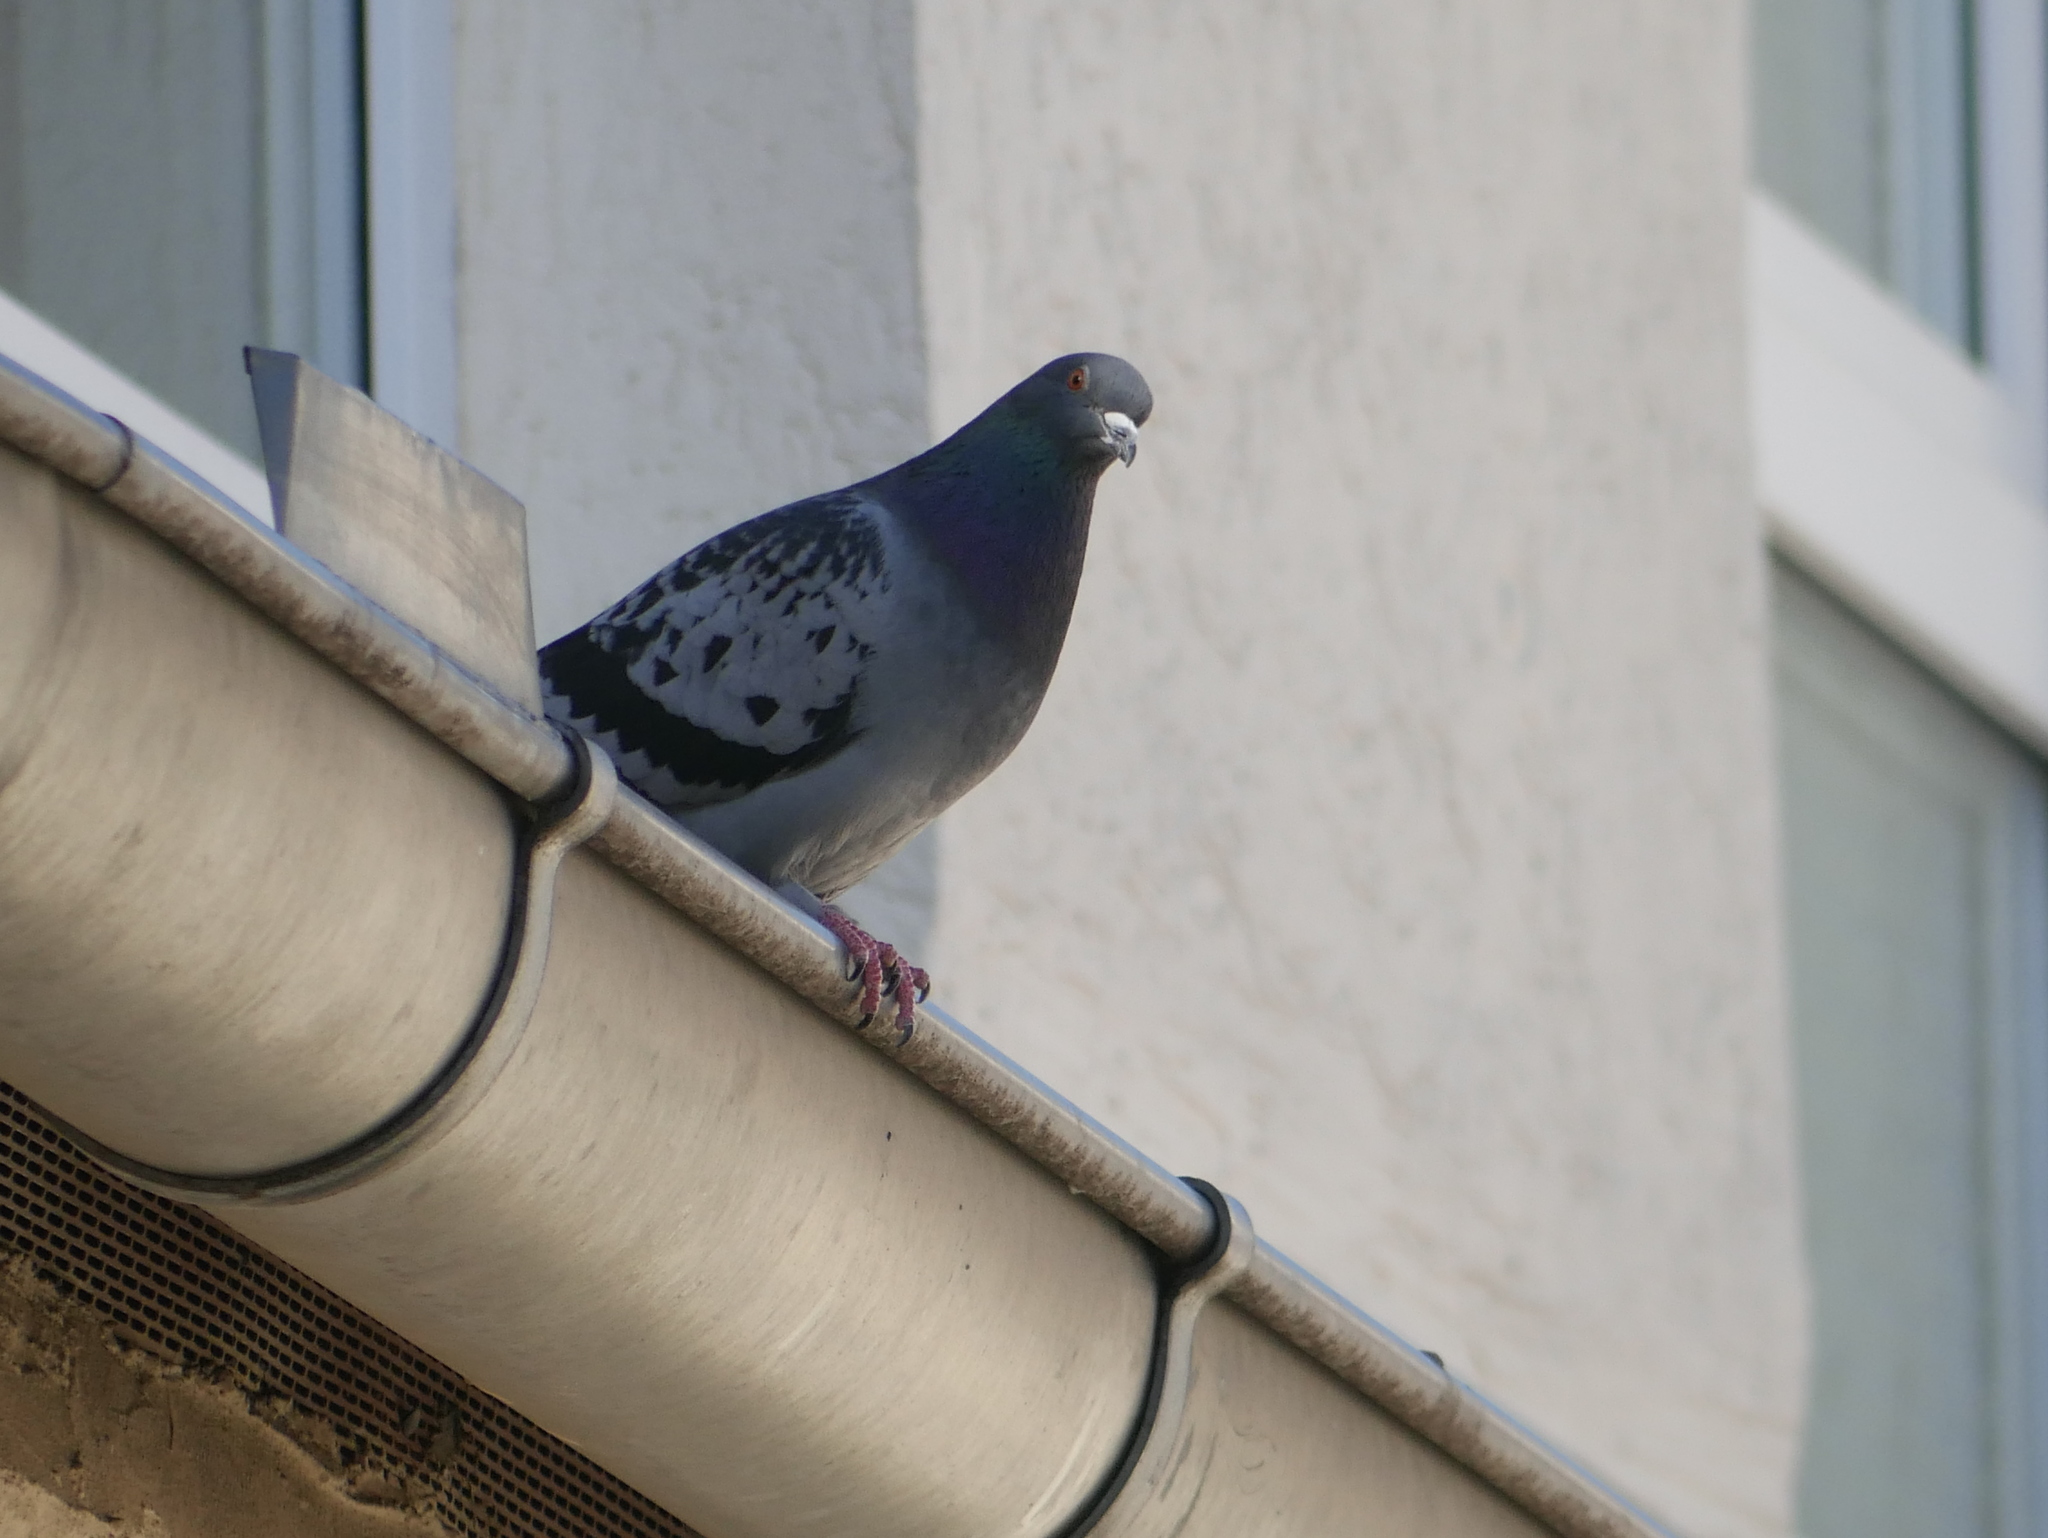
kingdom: Animalia
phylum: Chordata
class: Aves
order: Columbiformes
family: Columbidae
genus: Columba
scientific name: Columba livia
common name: Rock pigeon
